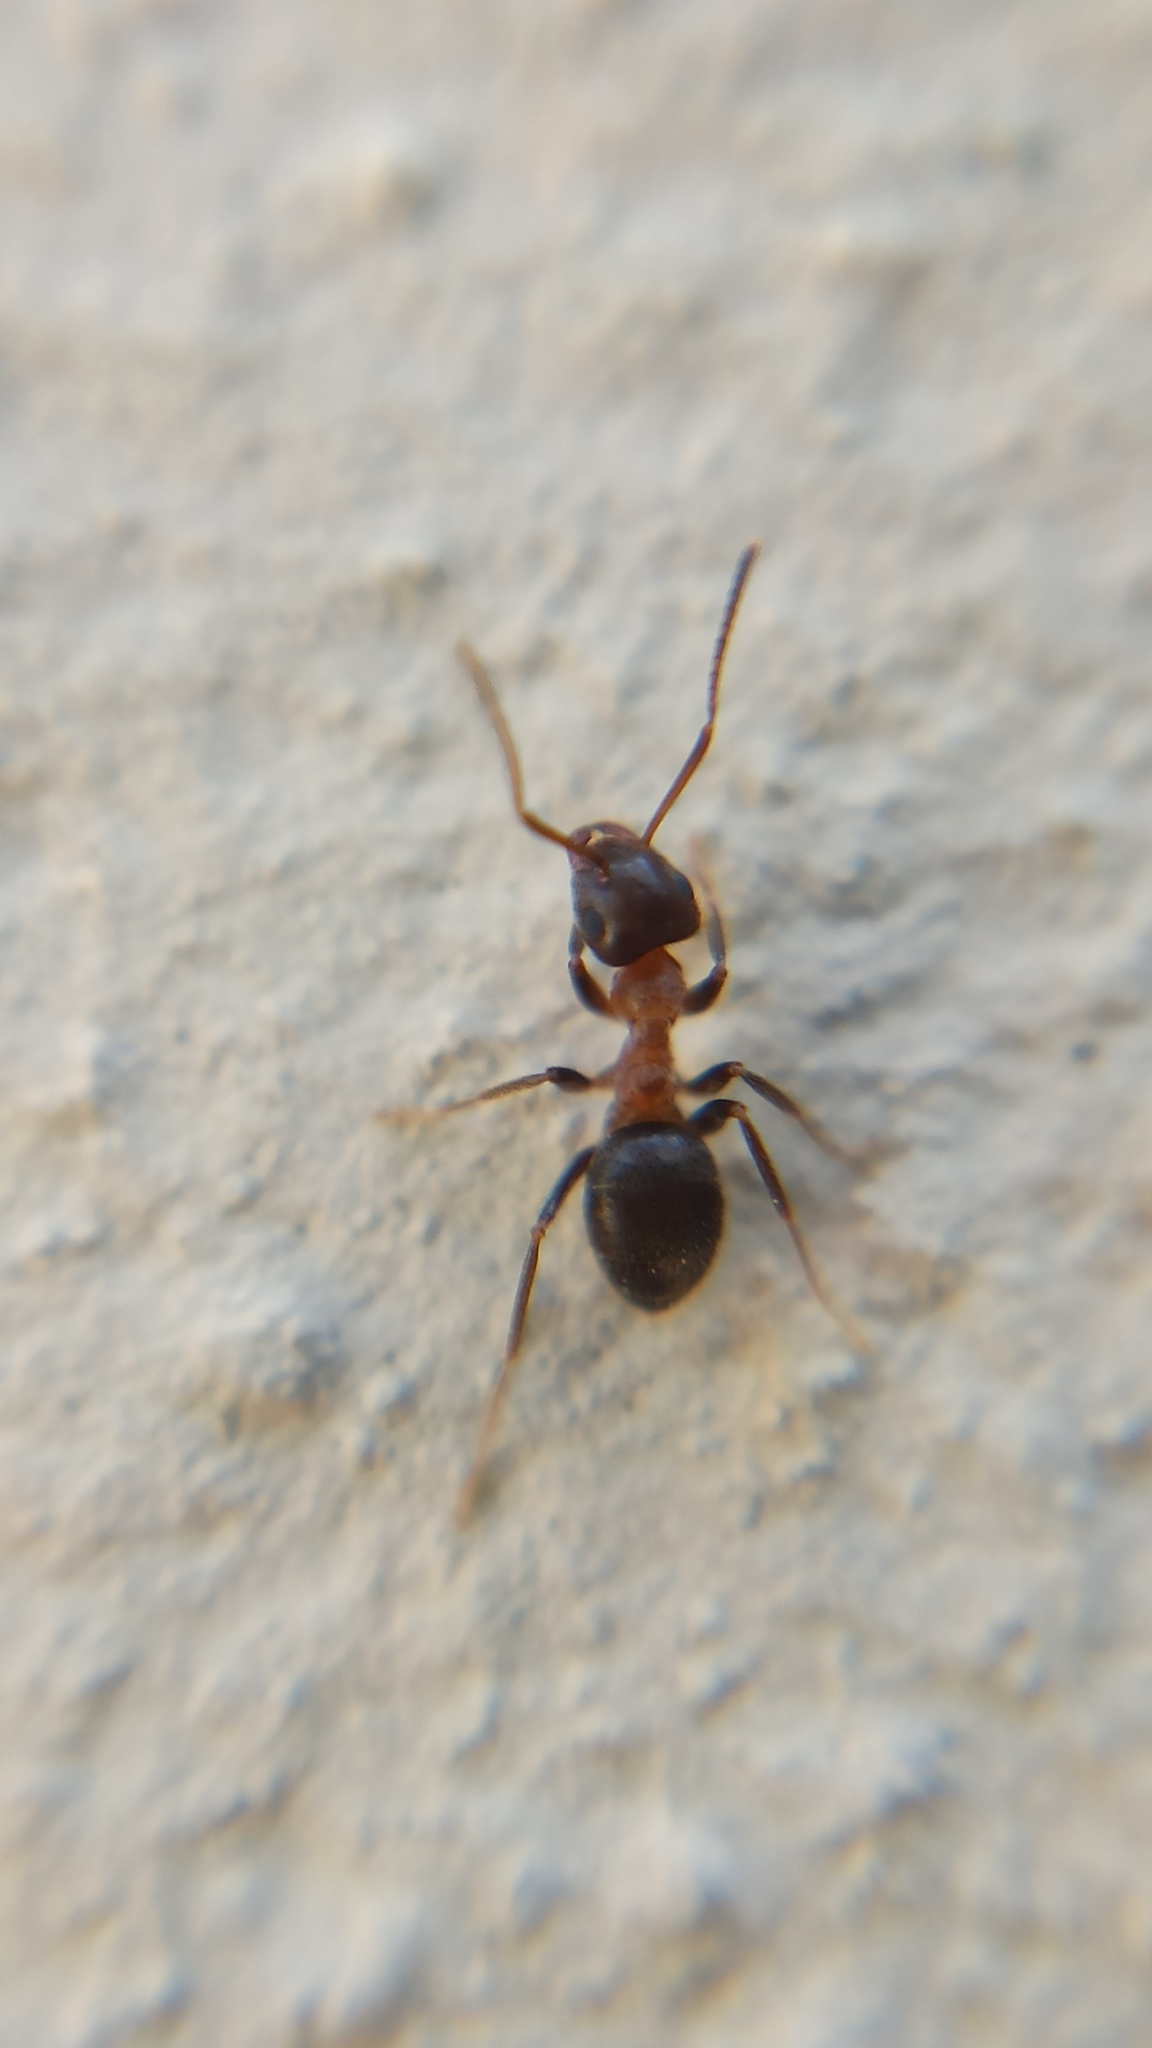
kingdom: Animalia
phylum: Arthropoda
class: Insecta
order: Hymenoptera
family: Formicidae
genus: Lasius
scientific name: Lasius emarginatus
